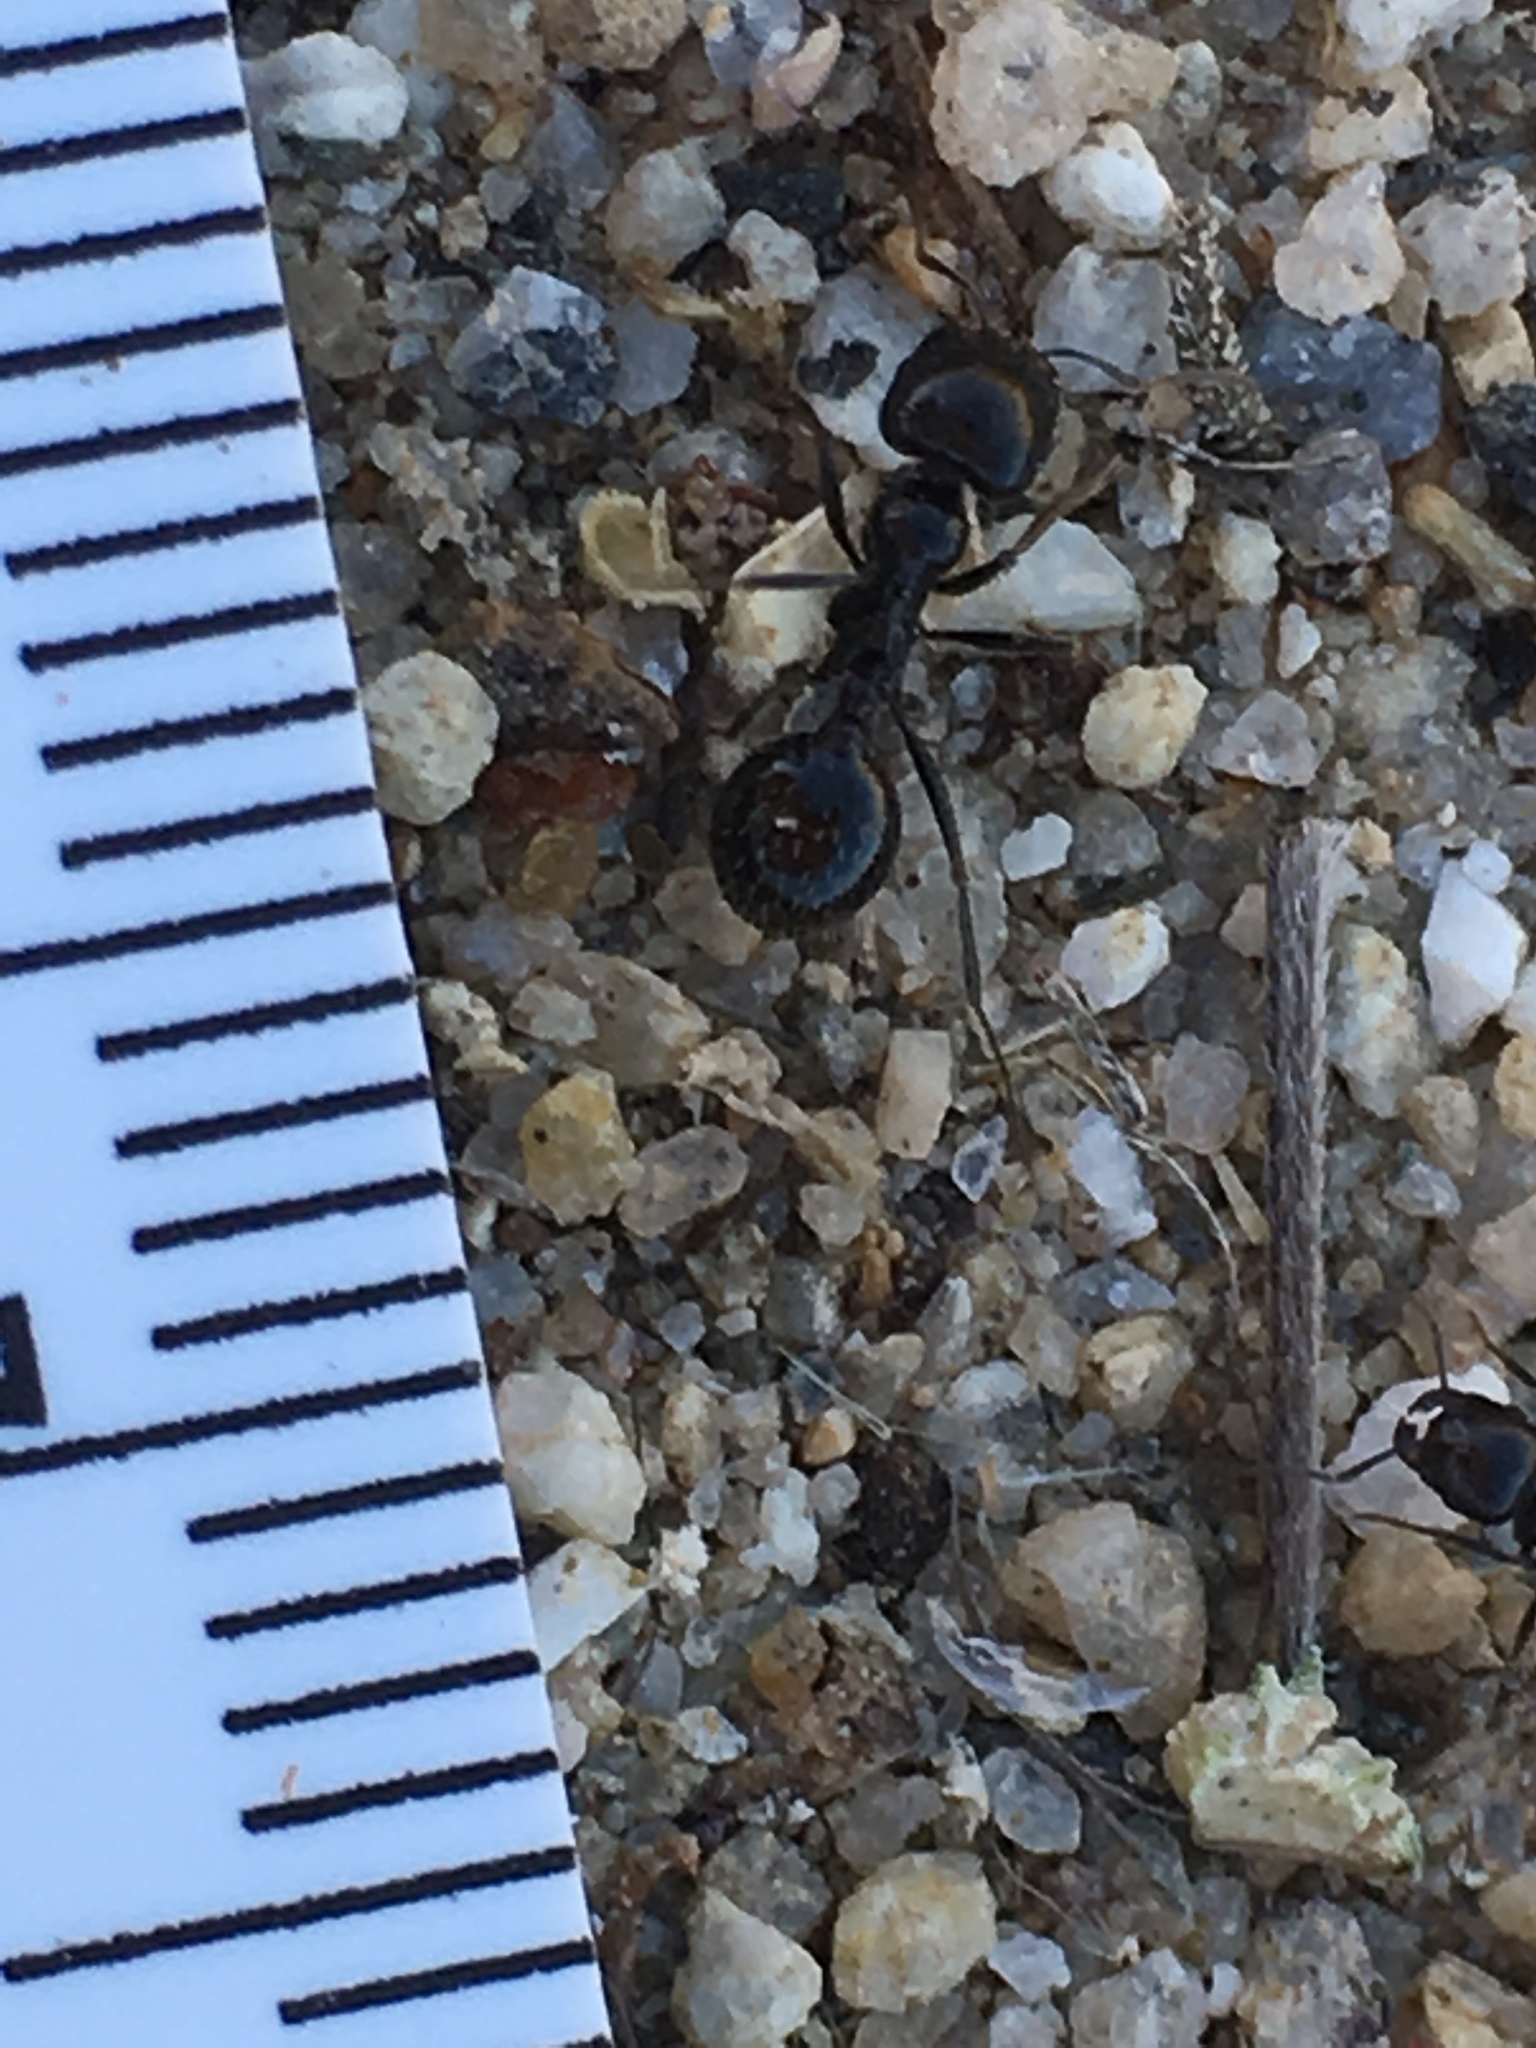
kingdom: Animalia
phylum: Arthropoda
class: Insecta
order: Hymenoptera
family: Formicidae
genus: Messor
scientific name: Messor pergandei
